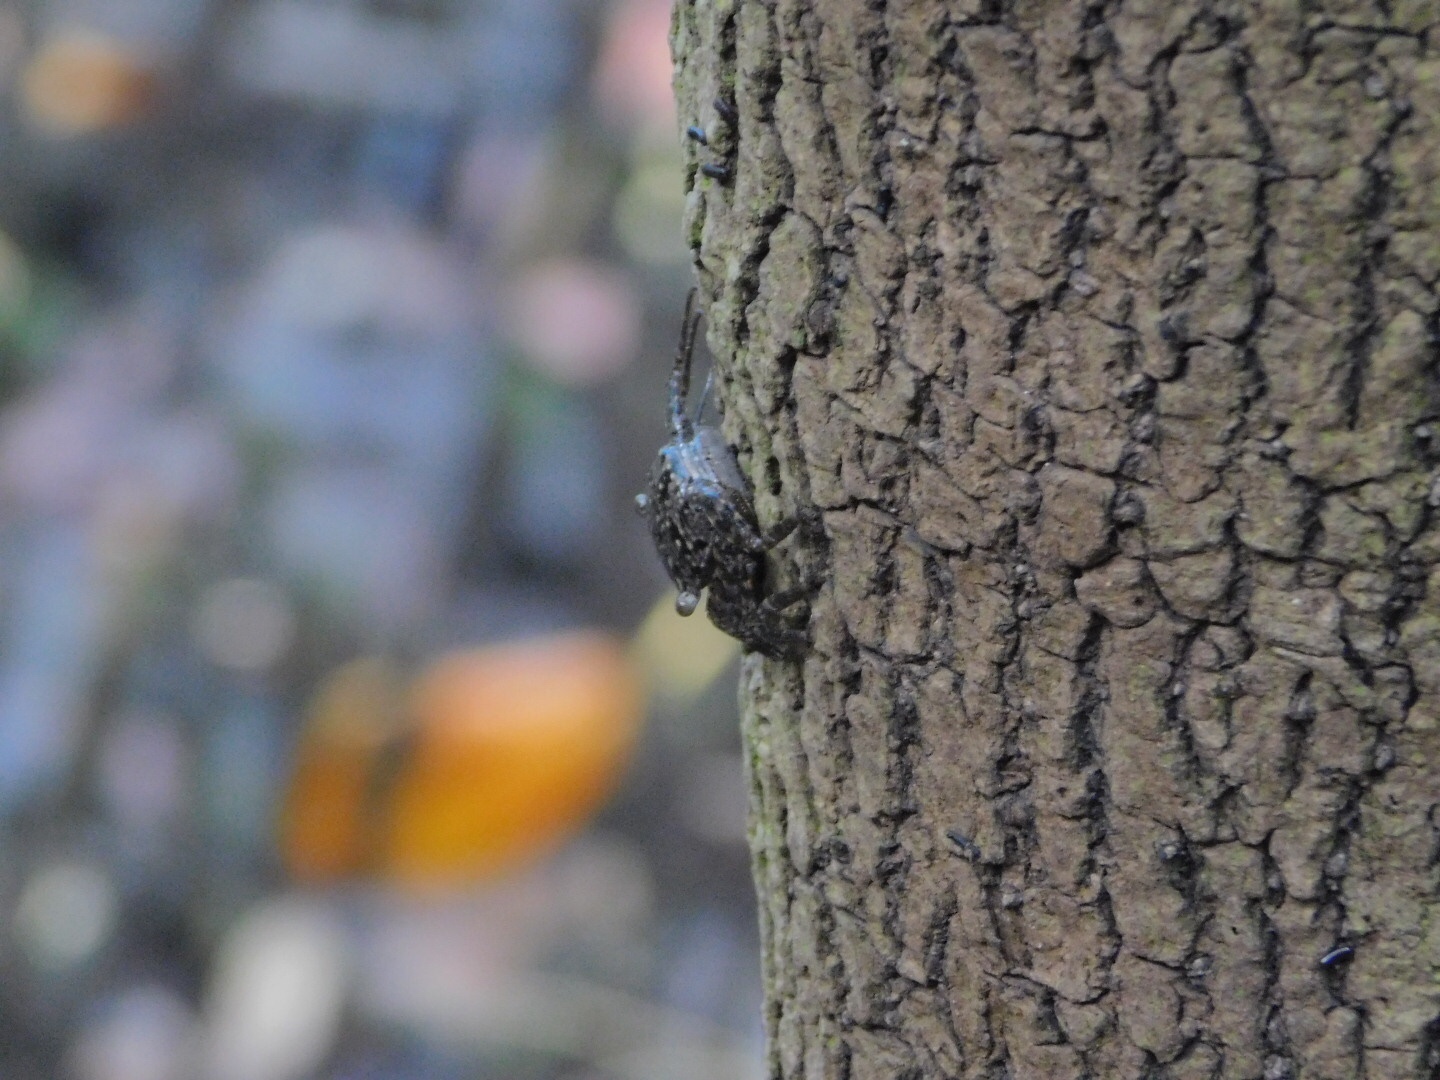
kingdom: Animalia
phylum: Arthropoda
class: Malacostraca
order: Decapoda
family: Sesarmidae
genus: Aratus
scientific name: Aratus pisonii
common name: Mangrove crab
